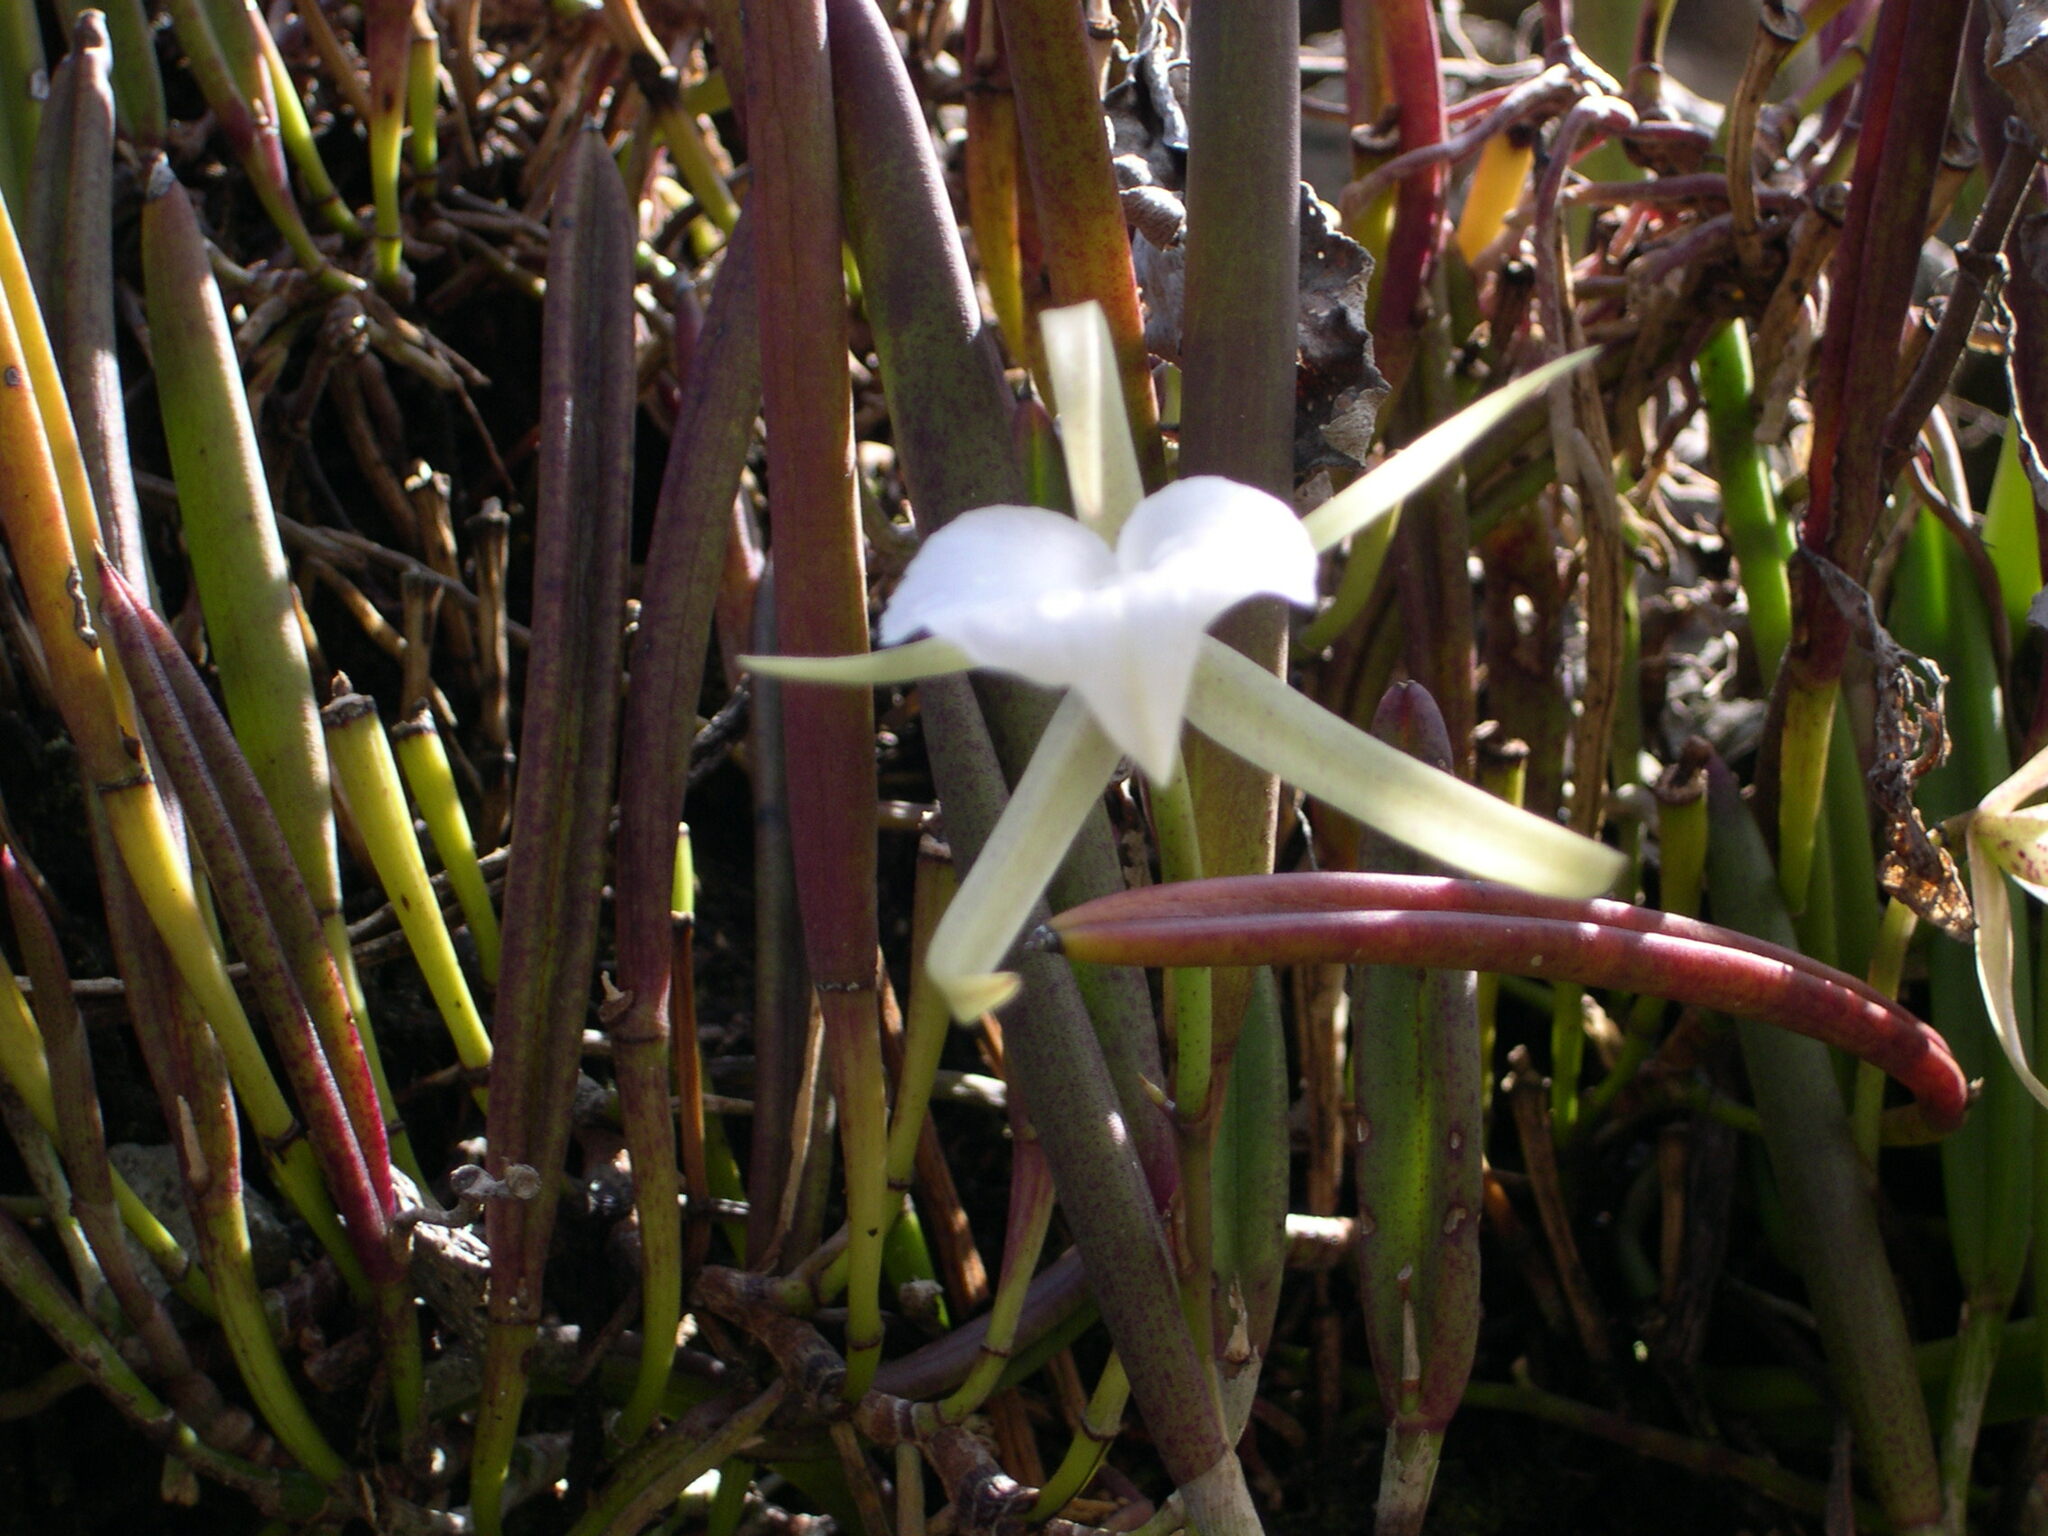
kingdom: Plantae
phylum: Tracheophyta
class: Liliopsida
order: Asparagales
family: Orchidaceae
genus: Brassavola
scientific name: Brassavola nodosa
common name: Lady of the night
